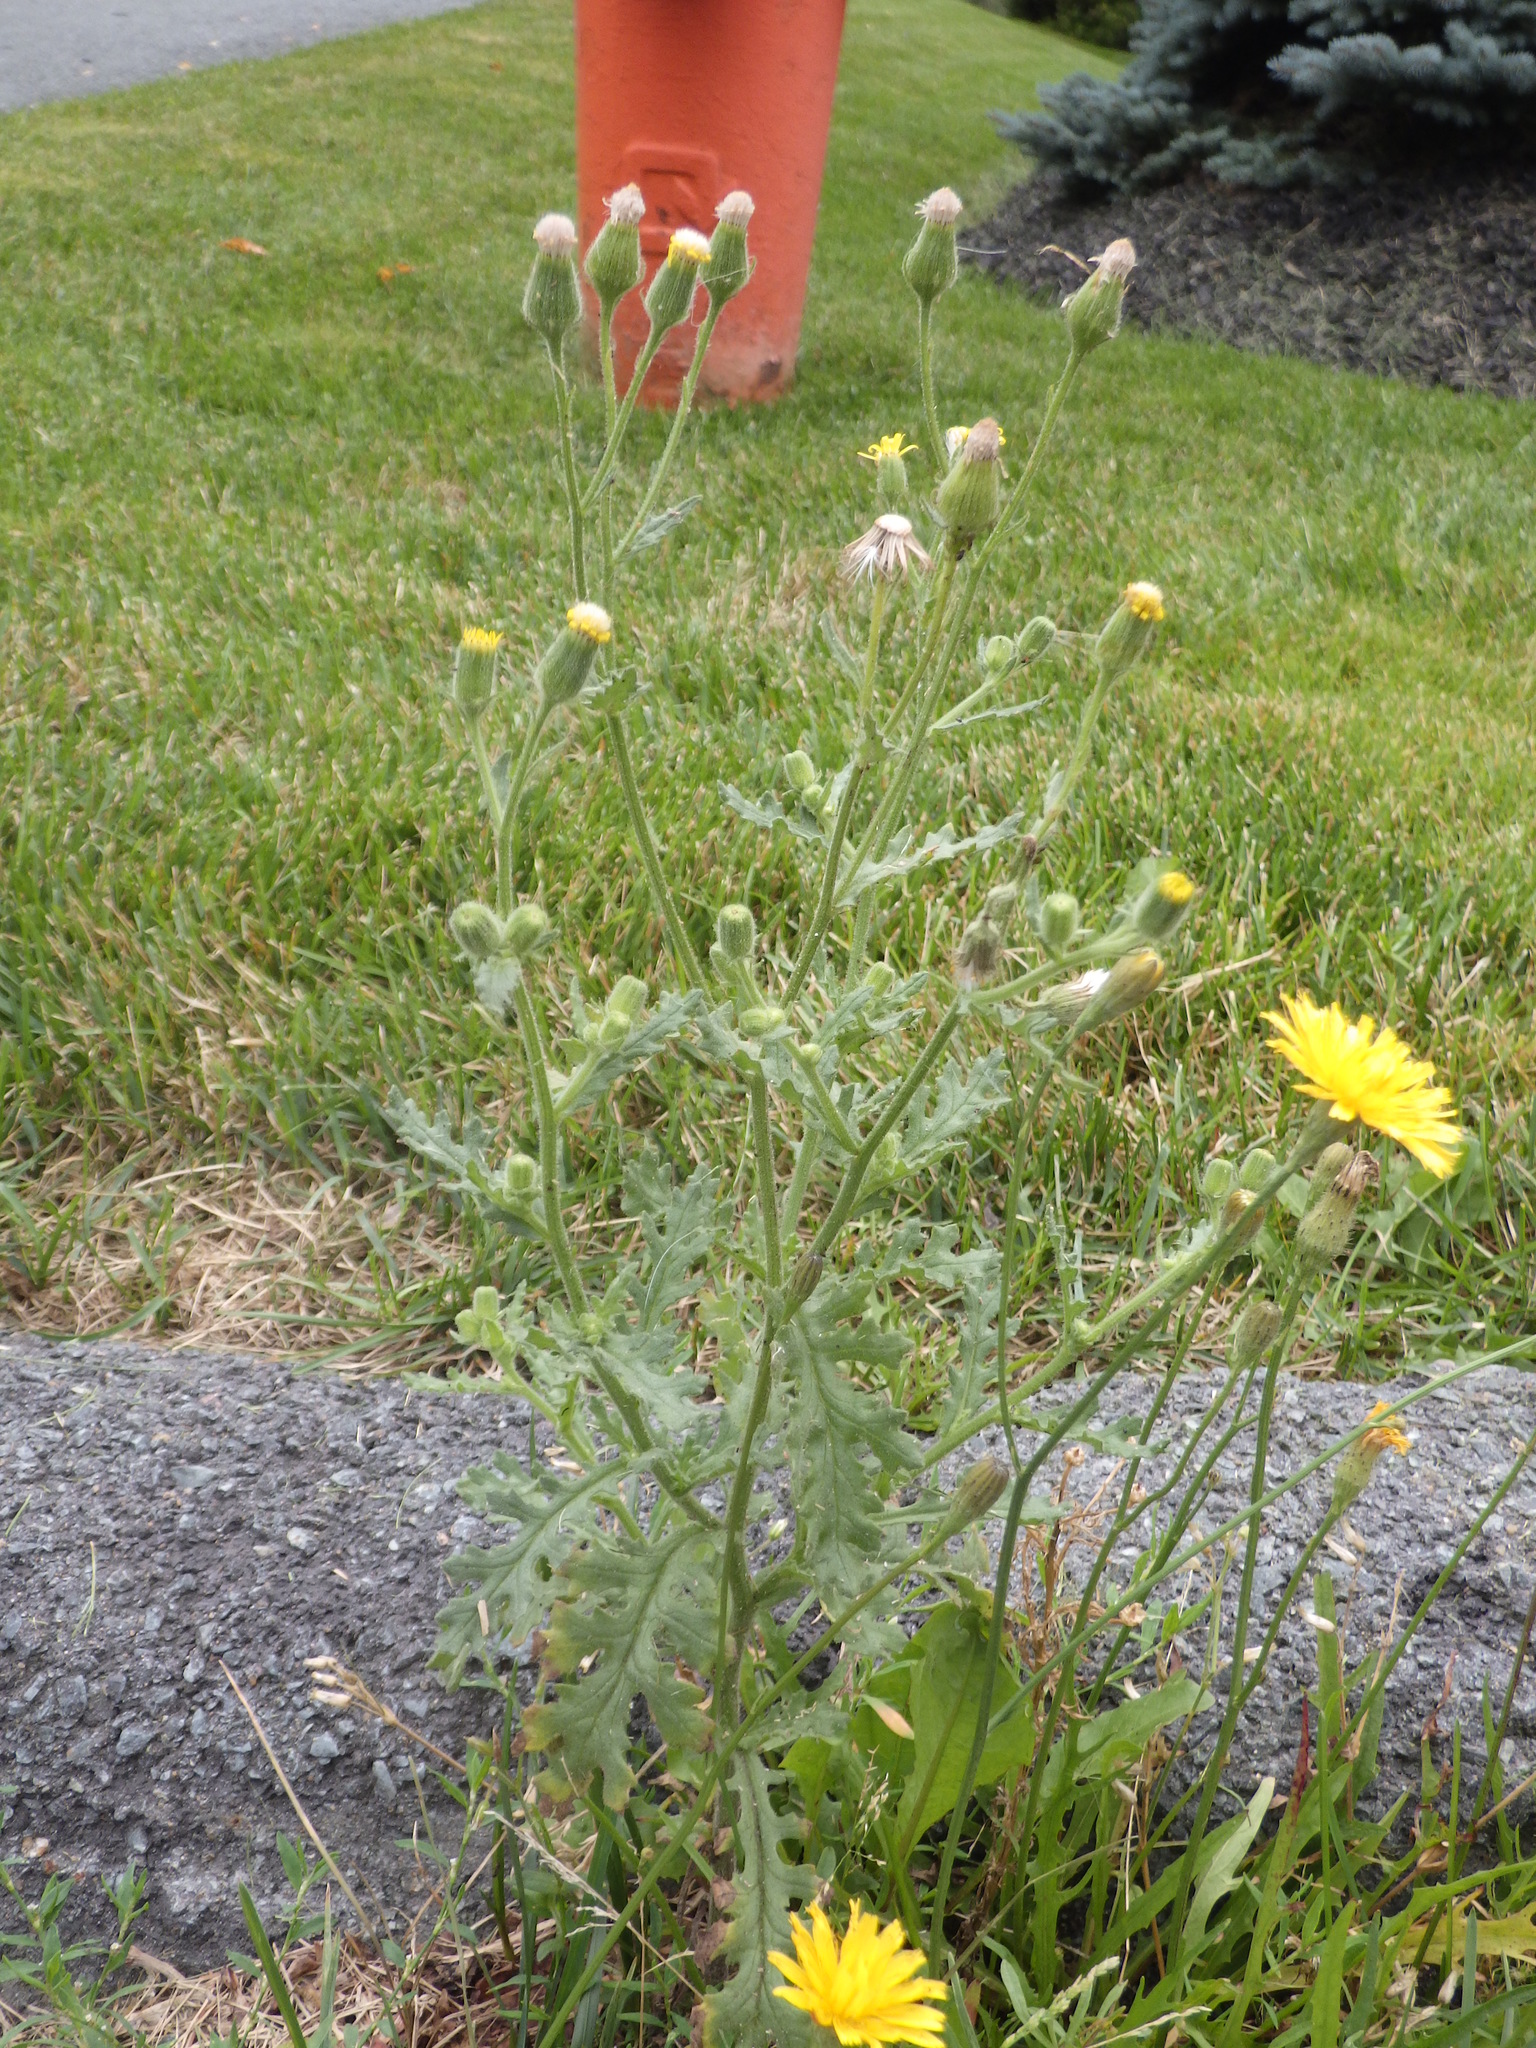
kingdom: Plantae
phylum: Tracheophyta
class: Magnoliopsida
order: Asterales
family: Asteraceae
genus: Senecio
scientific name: Senecio viscosus
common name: Sticky groundsel
